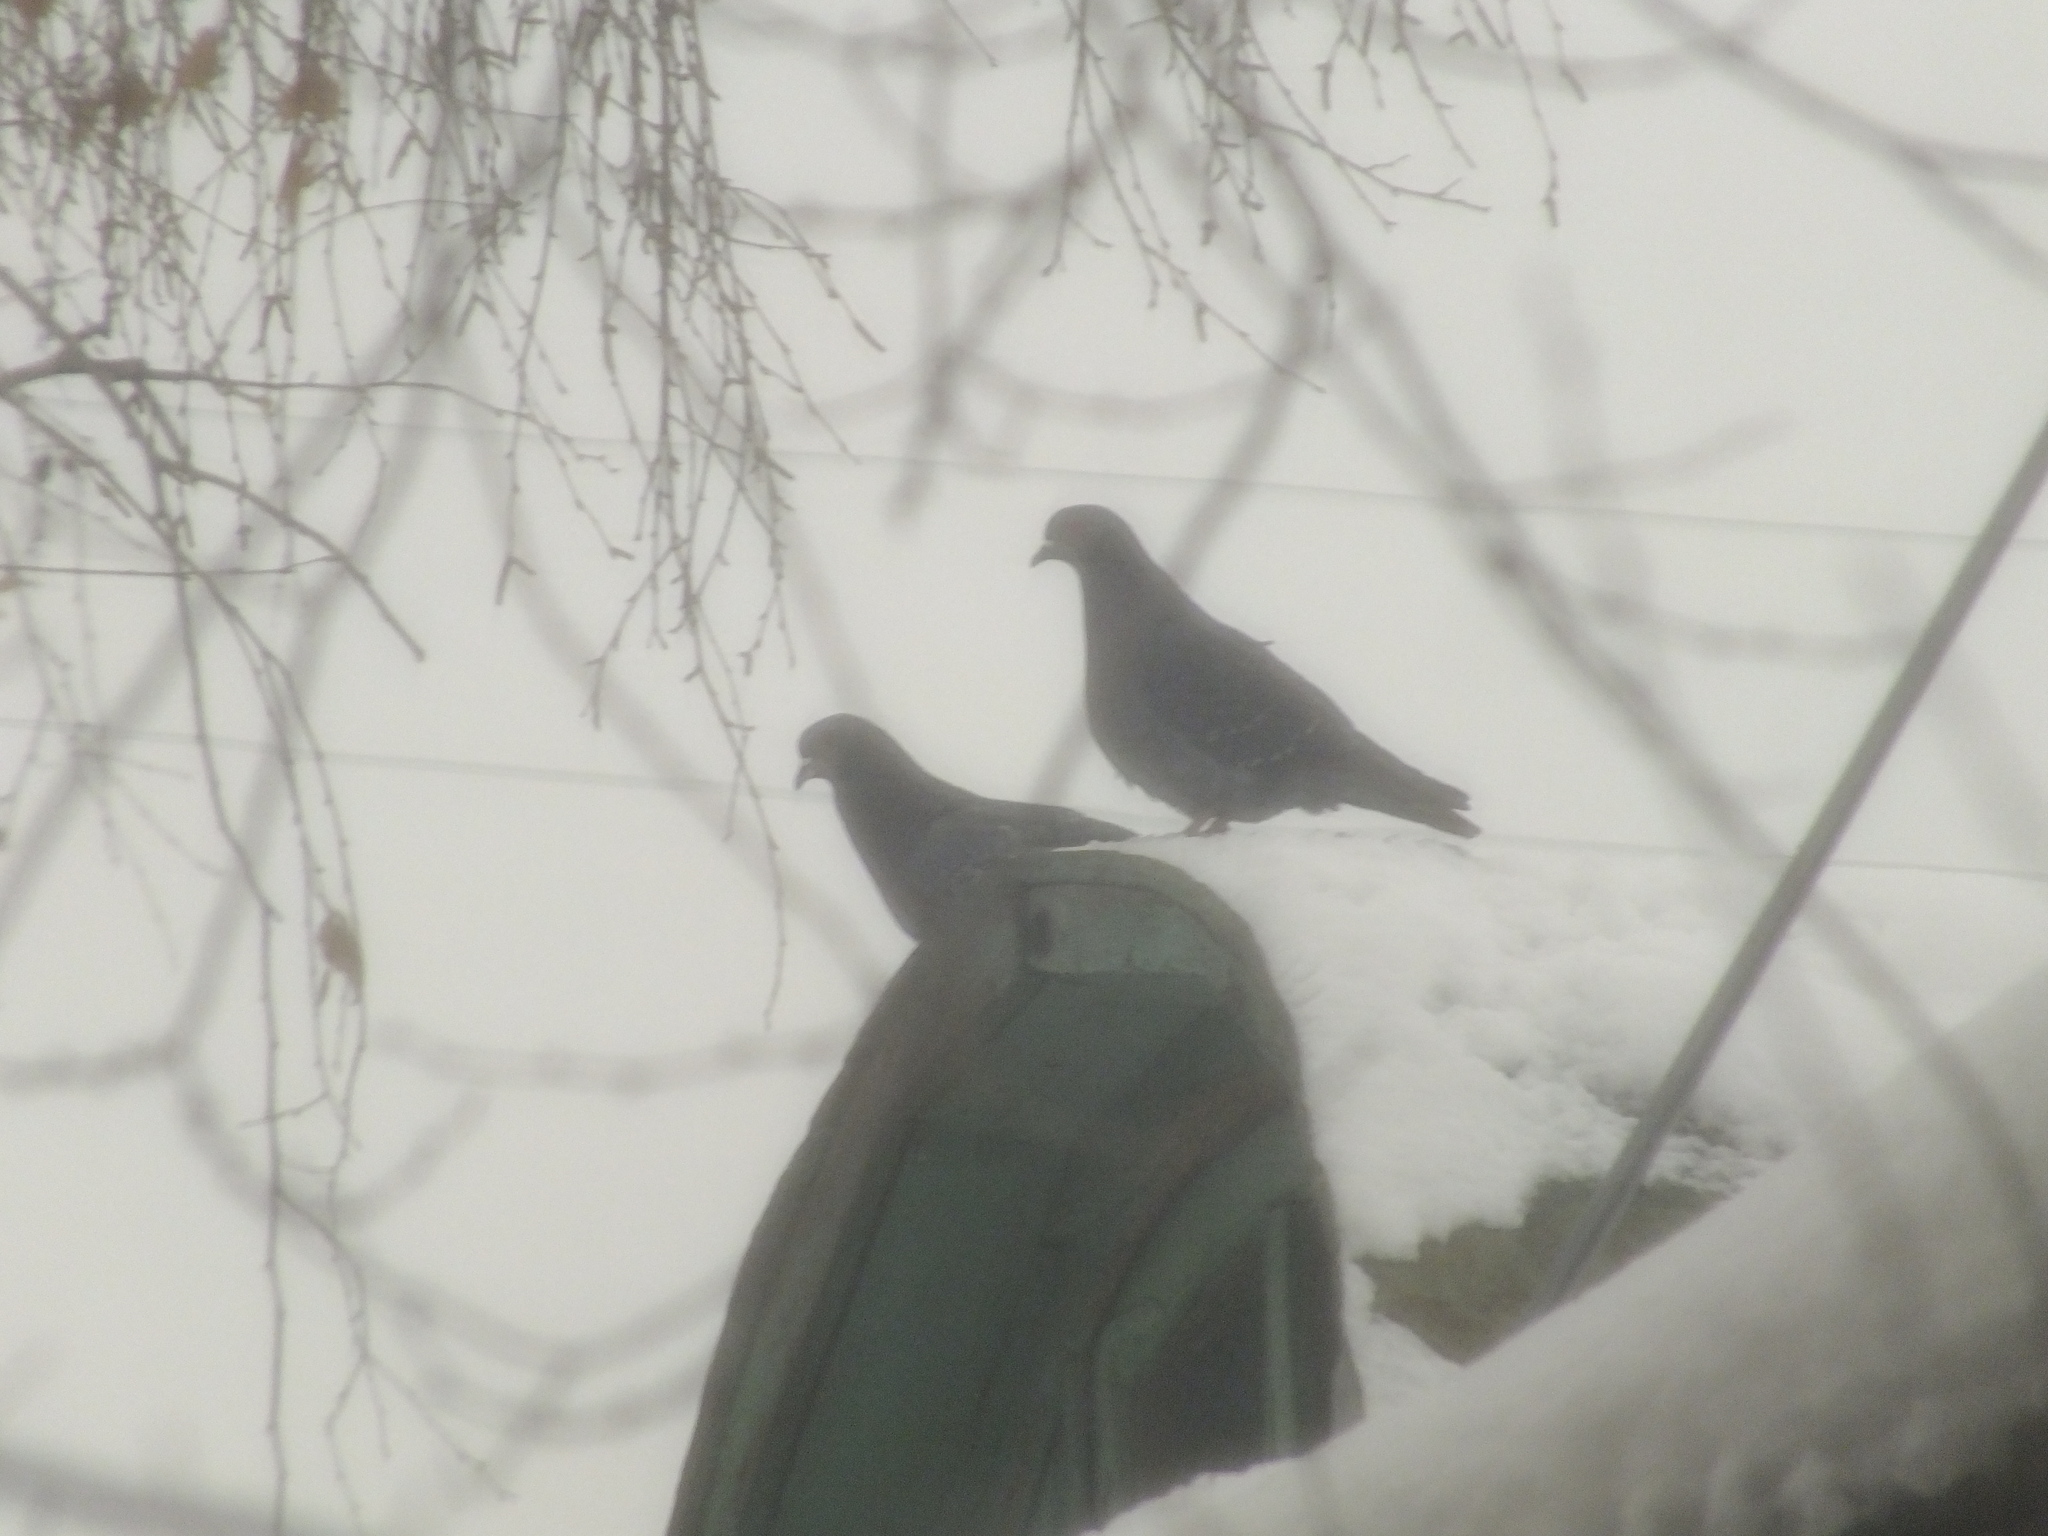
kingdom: Animalia
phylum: Chordata
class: Aves
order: Columbiformes
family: Columbidae
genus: Columba
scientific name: Columba livia
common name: Rock pigeon
